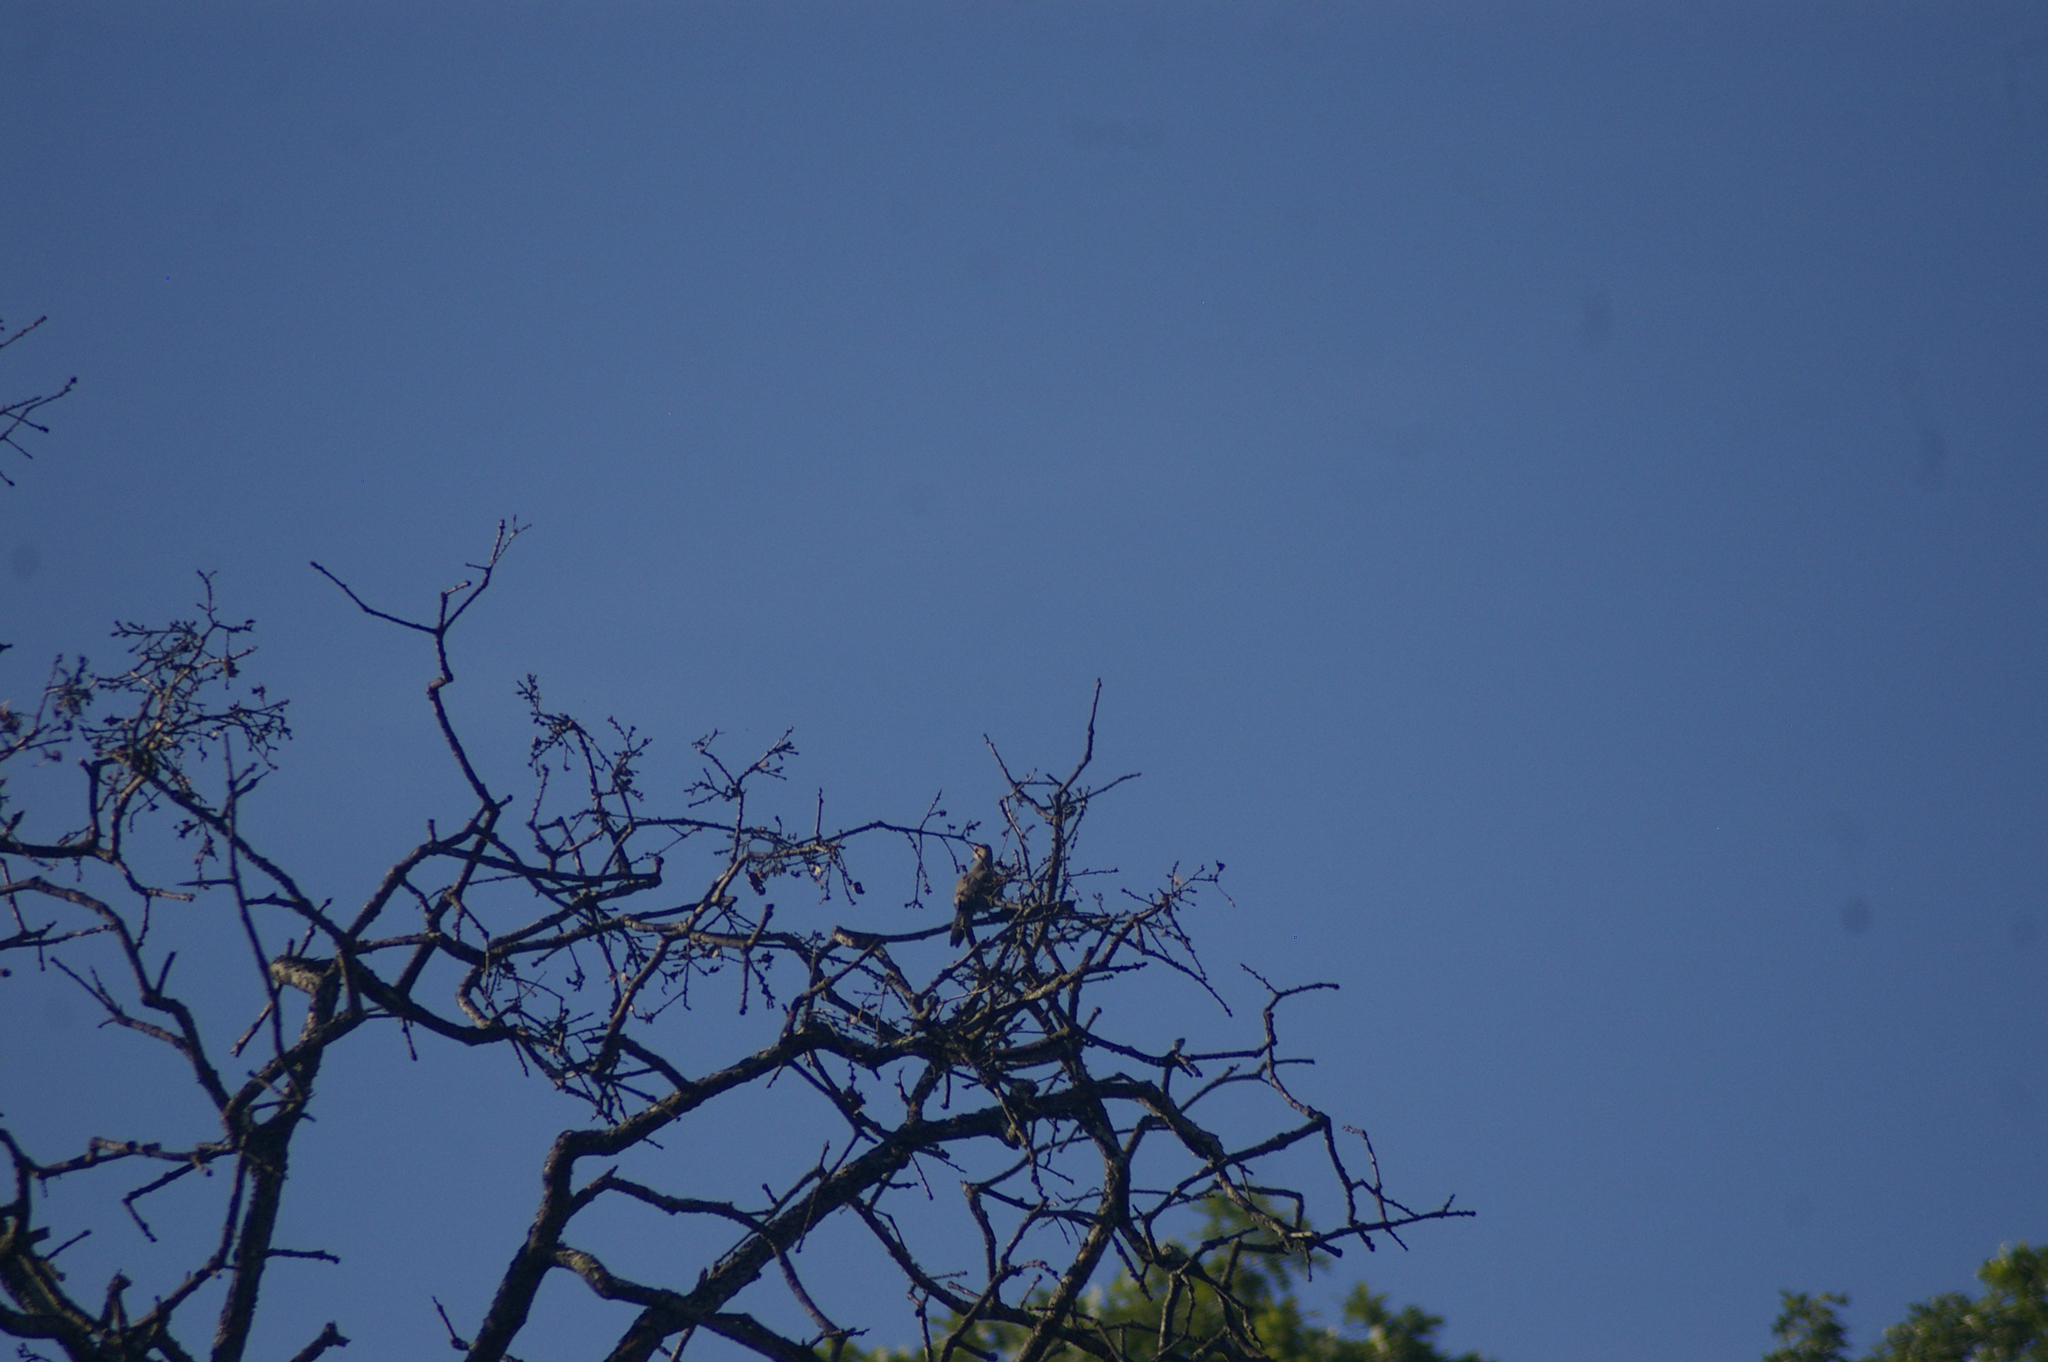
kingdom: Animalia
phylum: Chordata
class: Aves
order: Columbiformes
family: Columbidae
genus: Zenaida
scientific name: Zenaida macroura
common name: Mourning dove
